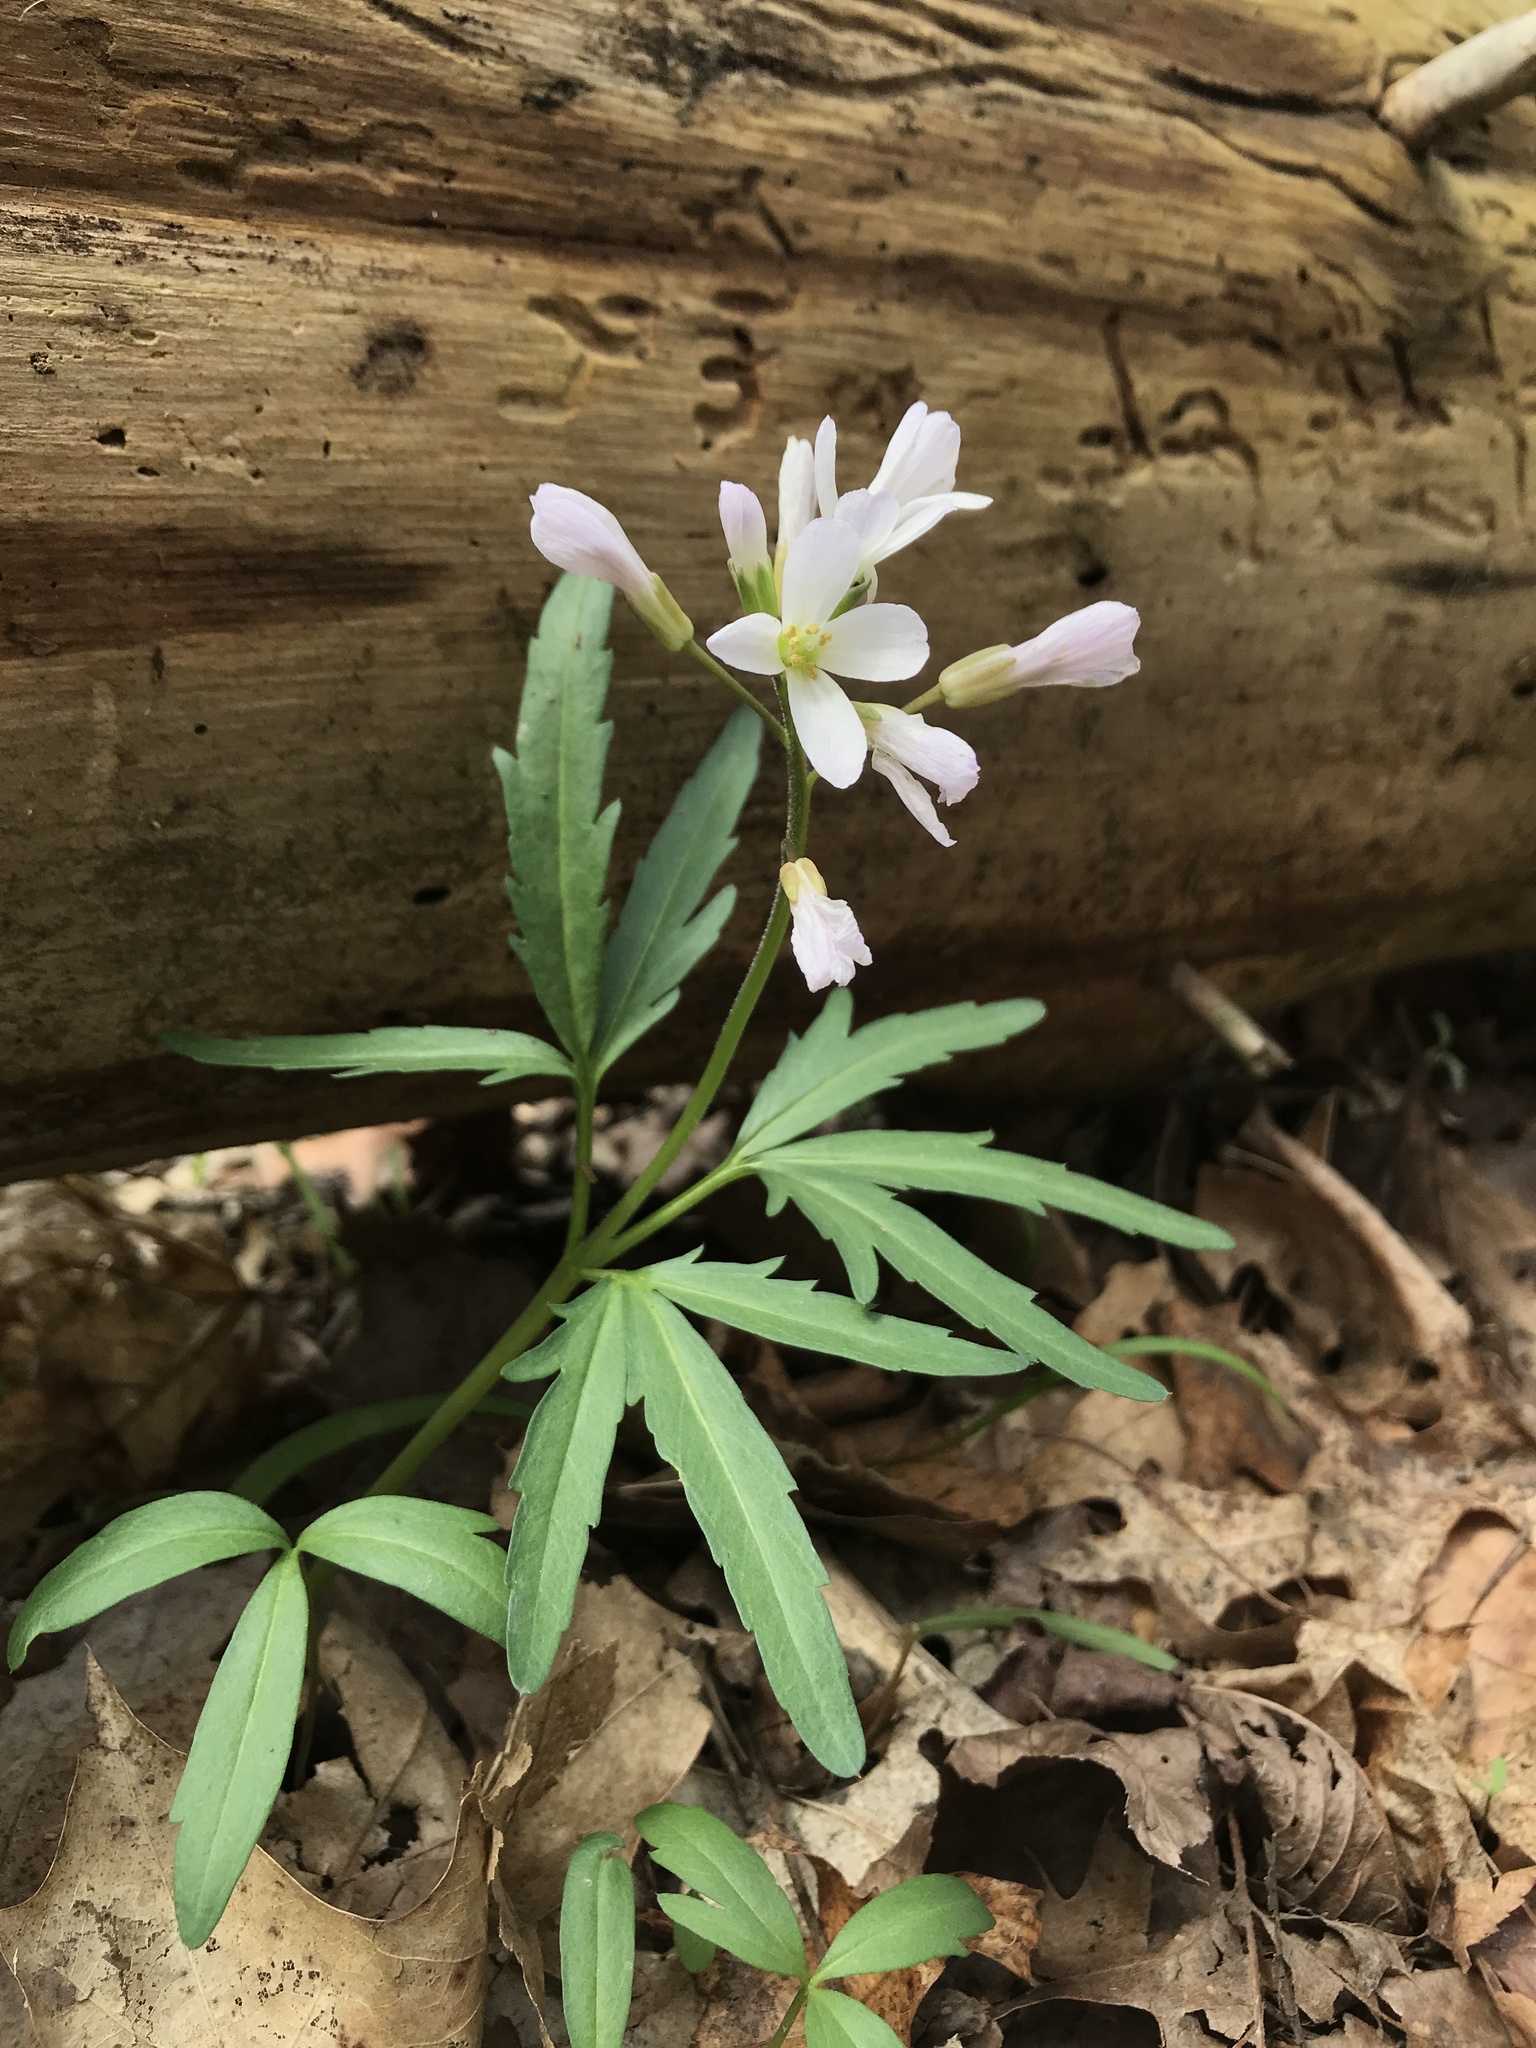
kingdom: Plantae
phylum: Tracheophyta
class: Magnoliopsida
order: Brassicales
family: Brassicaceae
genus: Cardamine
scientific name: Cardamine concatenata
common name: Cut-leaf toothcup
